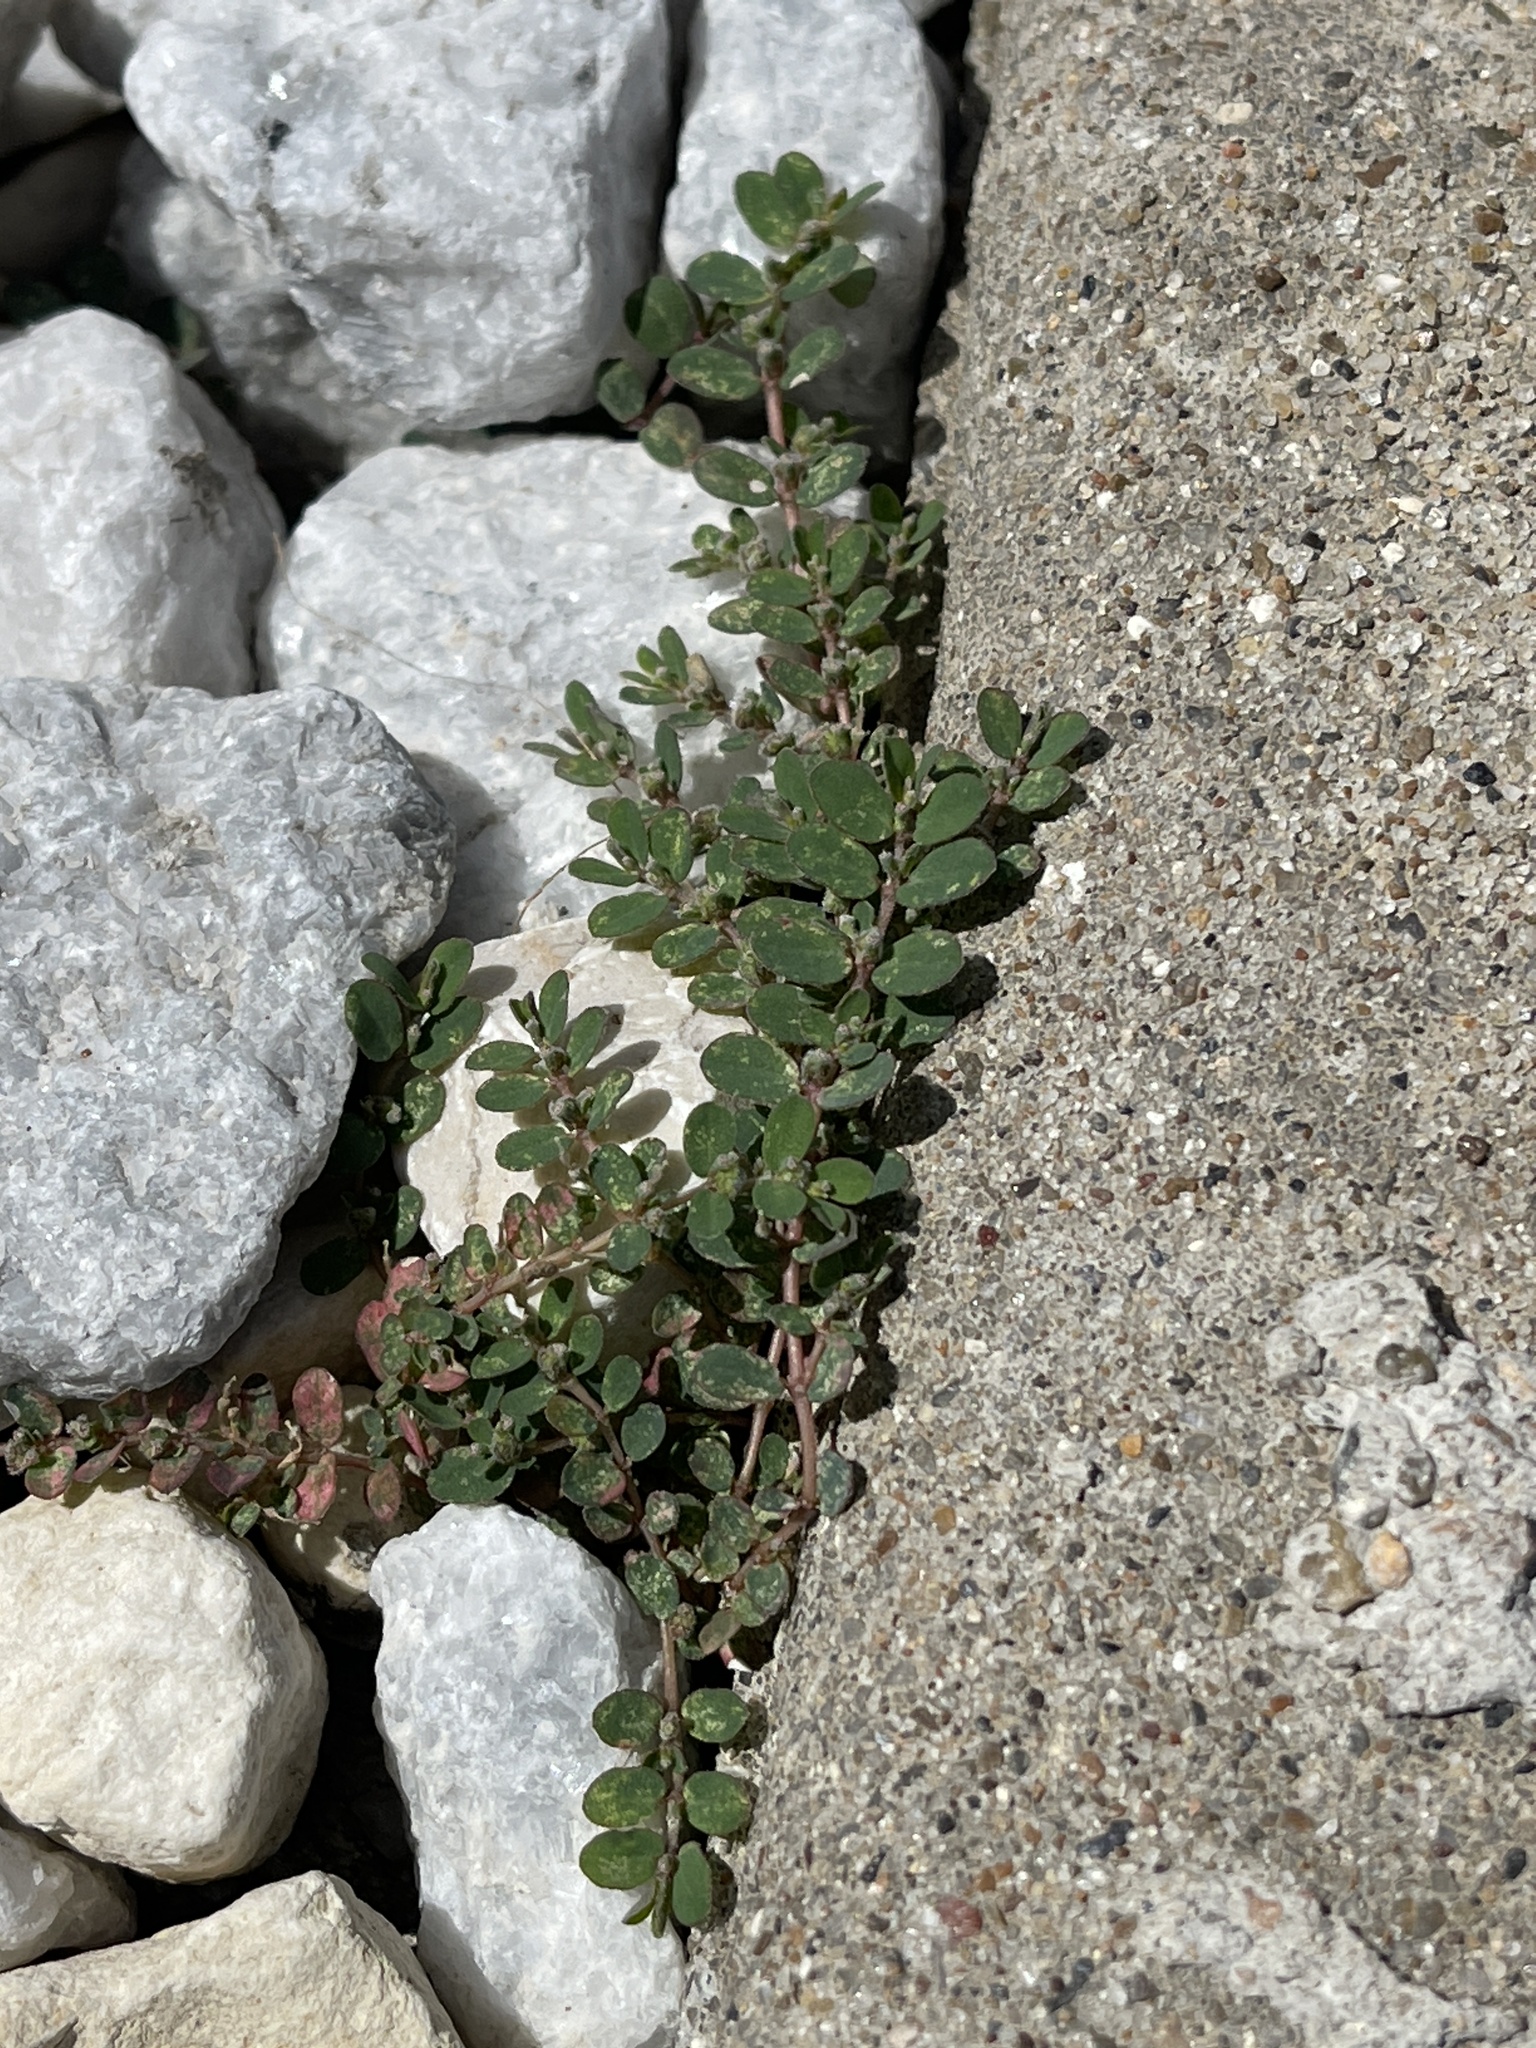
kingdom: Plantae
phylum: Tracheophyta
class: Magnoliopsida
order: Malpighiales
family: Euphorbiaceae
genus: Euphorbia
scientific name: Euphorbia prostrata
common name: Prostrate sandmat
